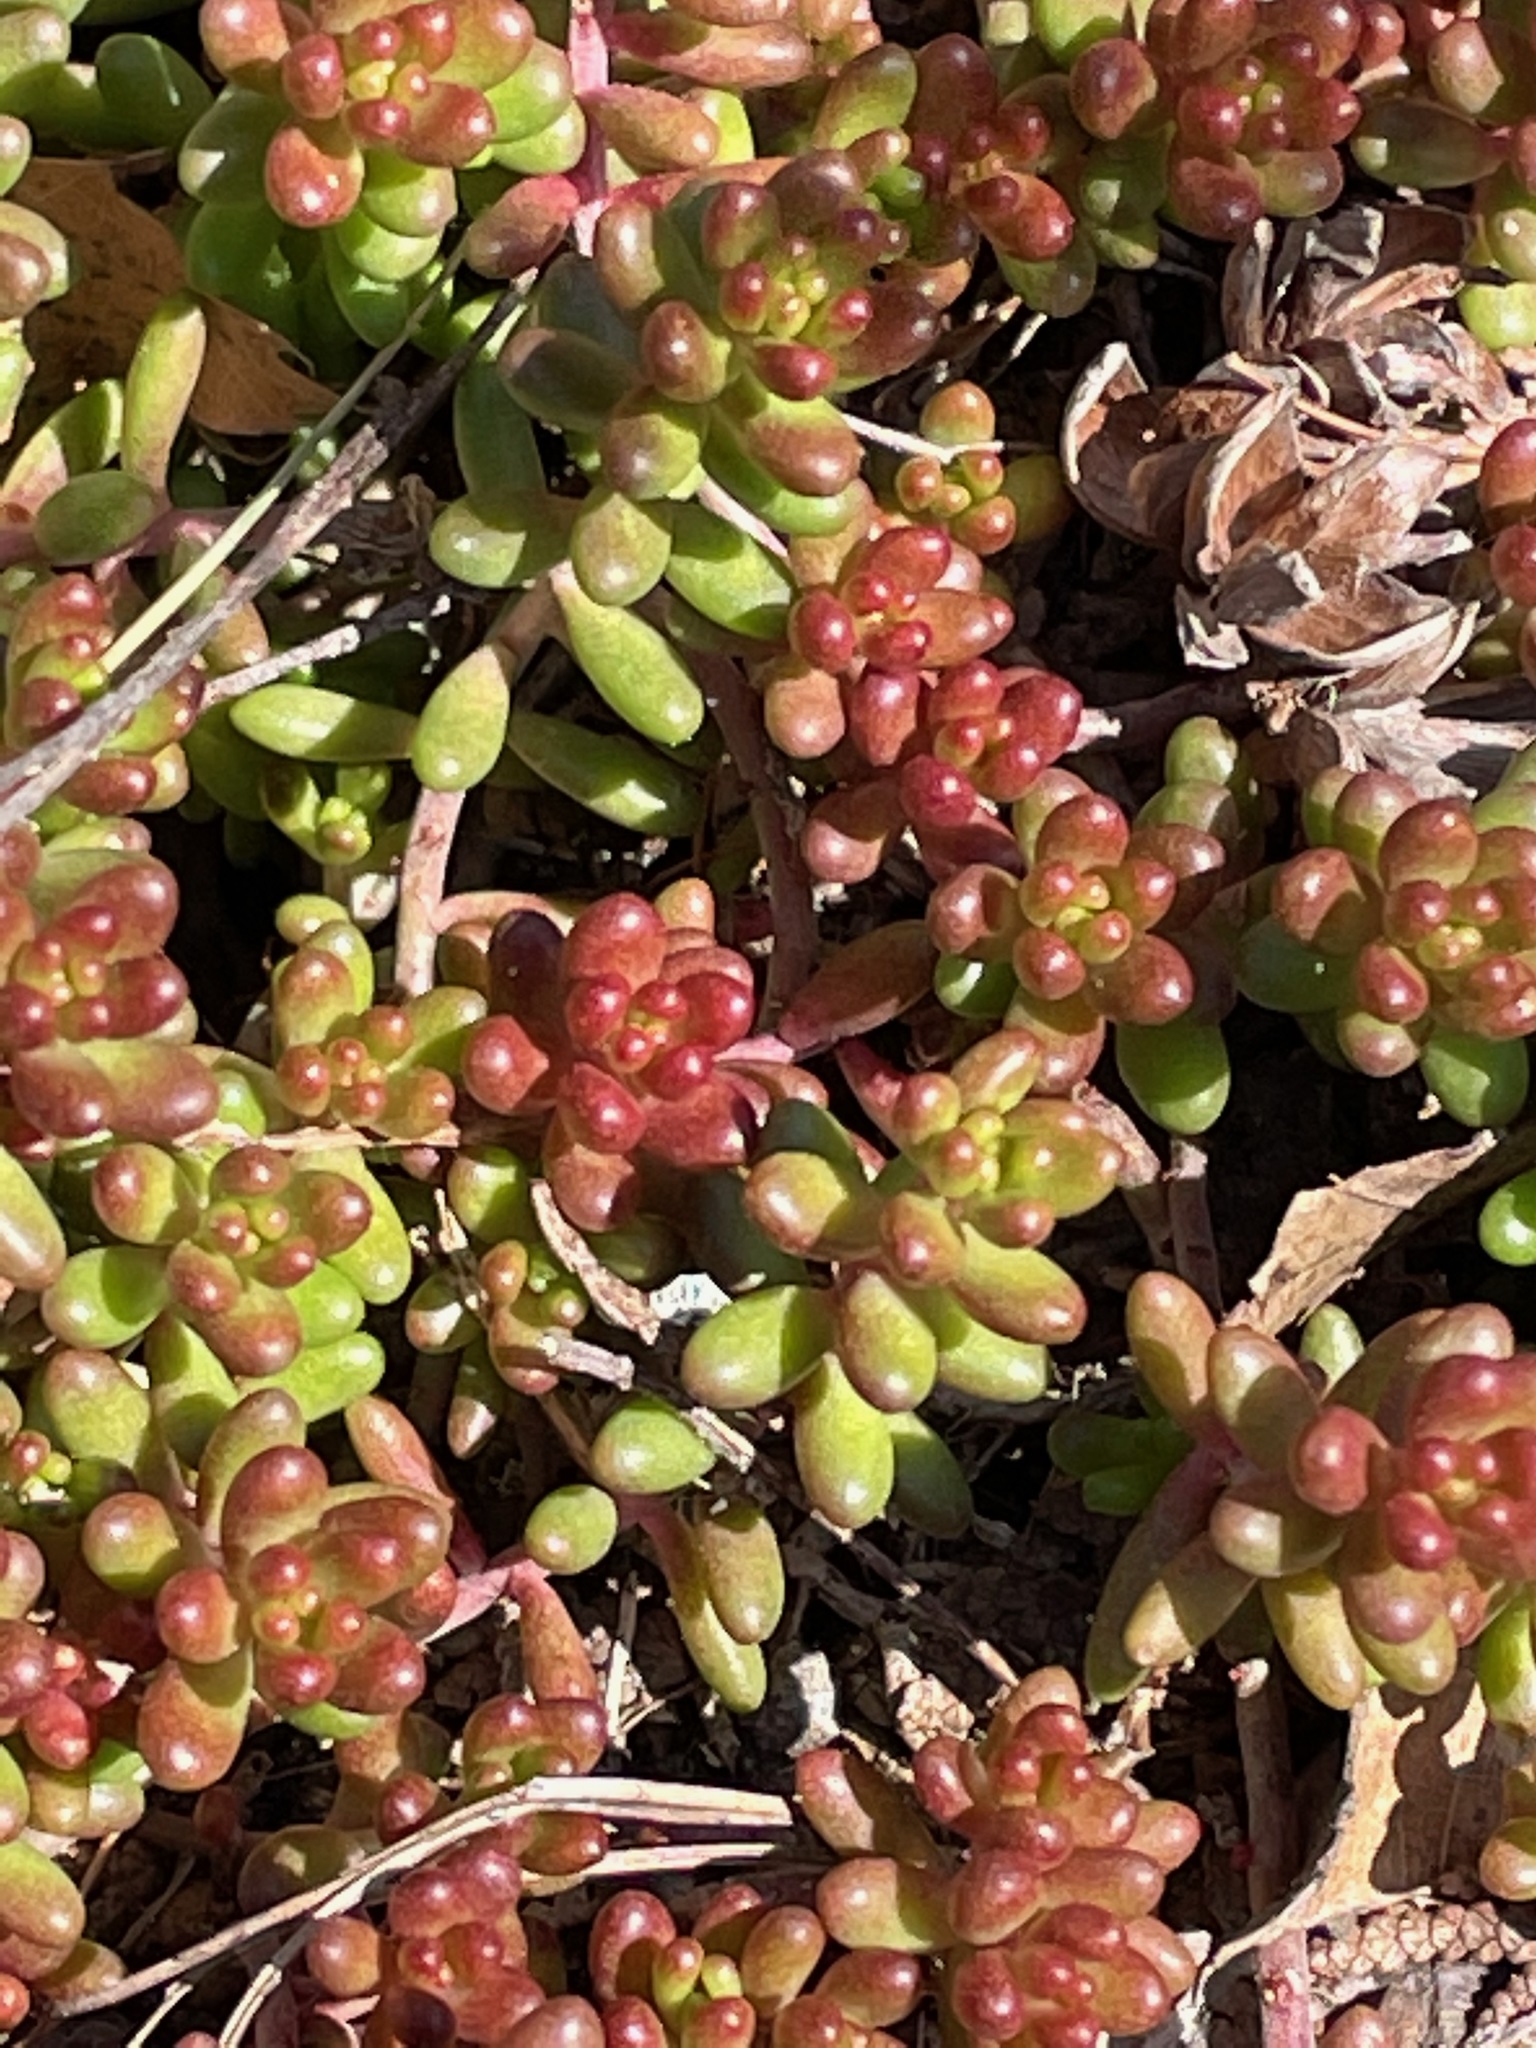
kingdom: Plantae
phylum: Tracheophyta
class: Magnoliopsida
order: Saxifragales
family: Crassulaceae
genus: Sedum
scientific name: Sedum album
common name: White stonecrop
